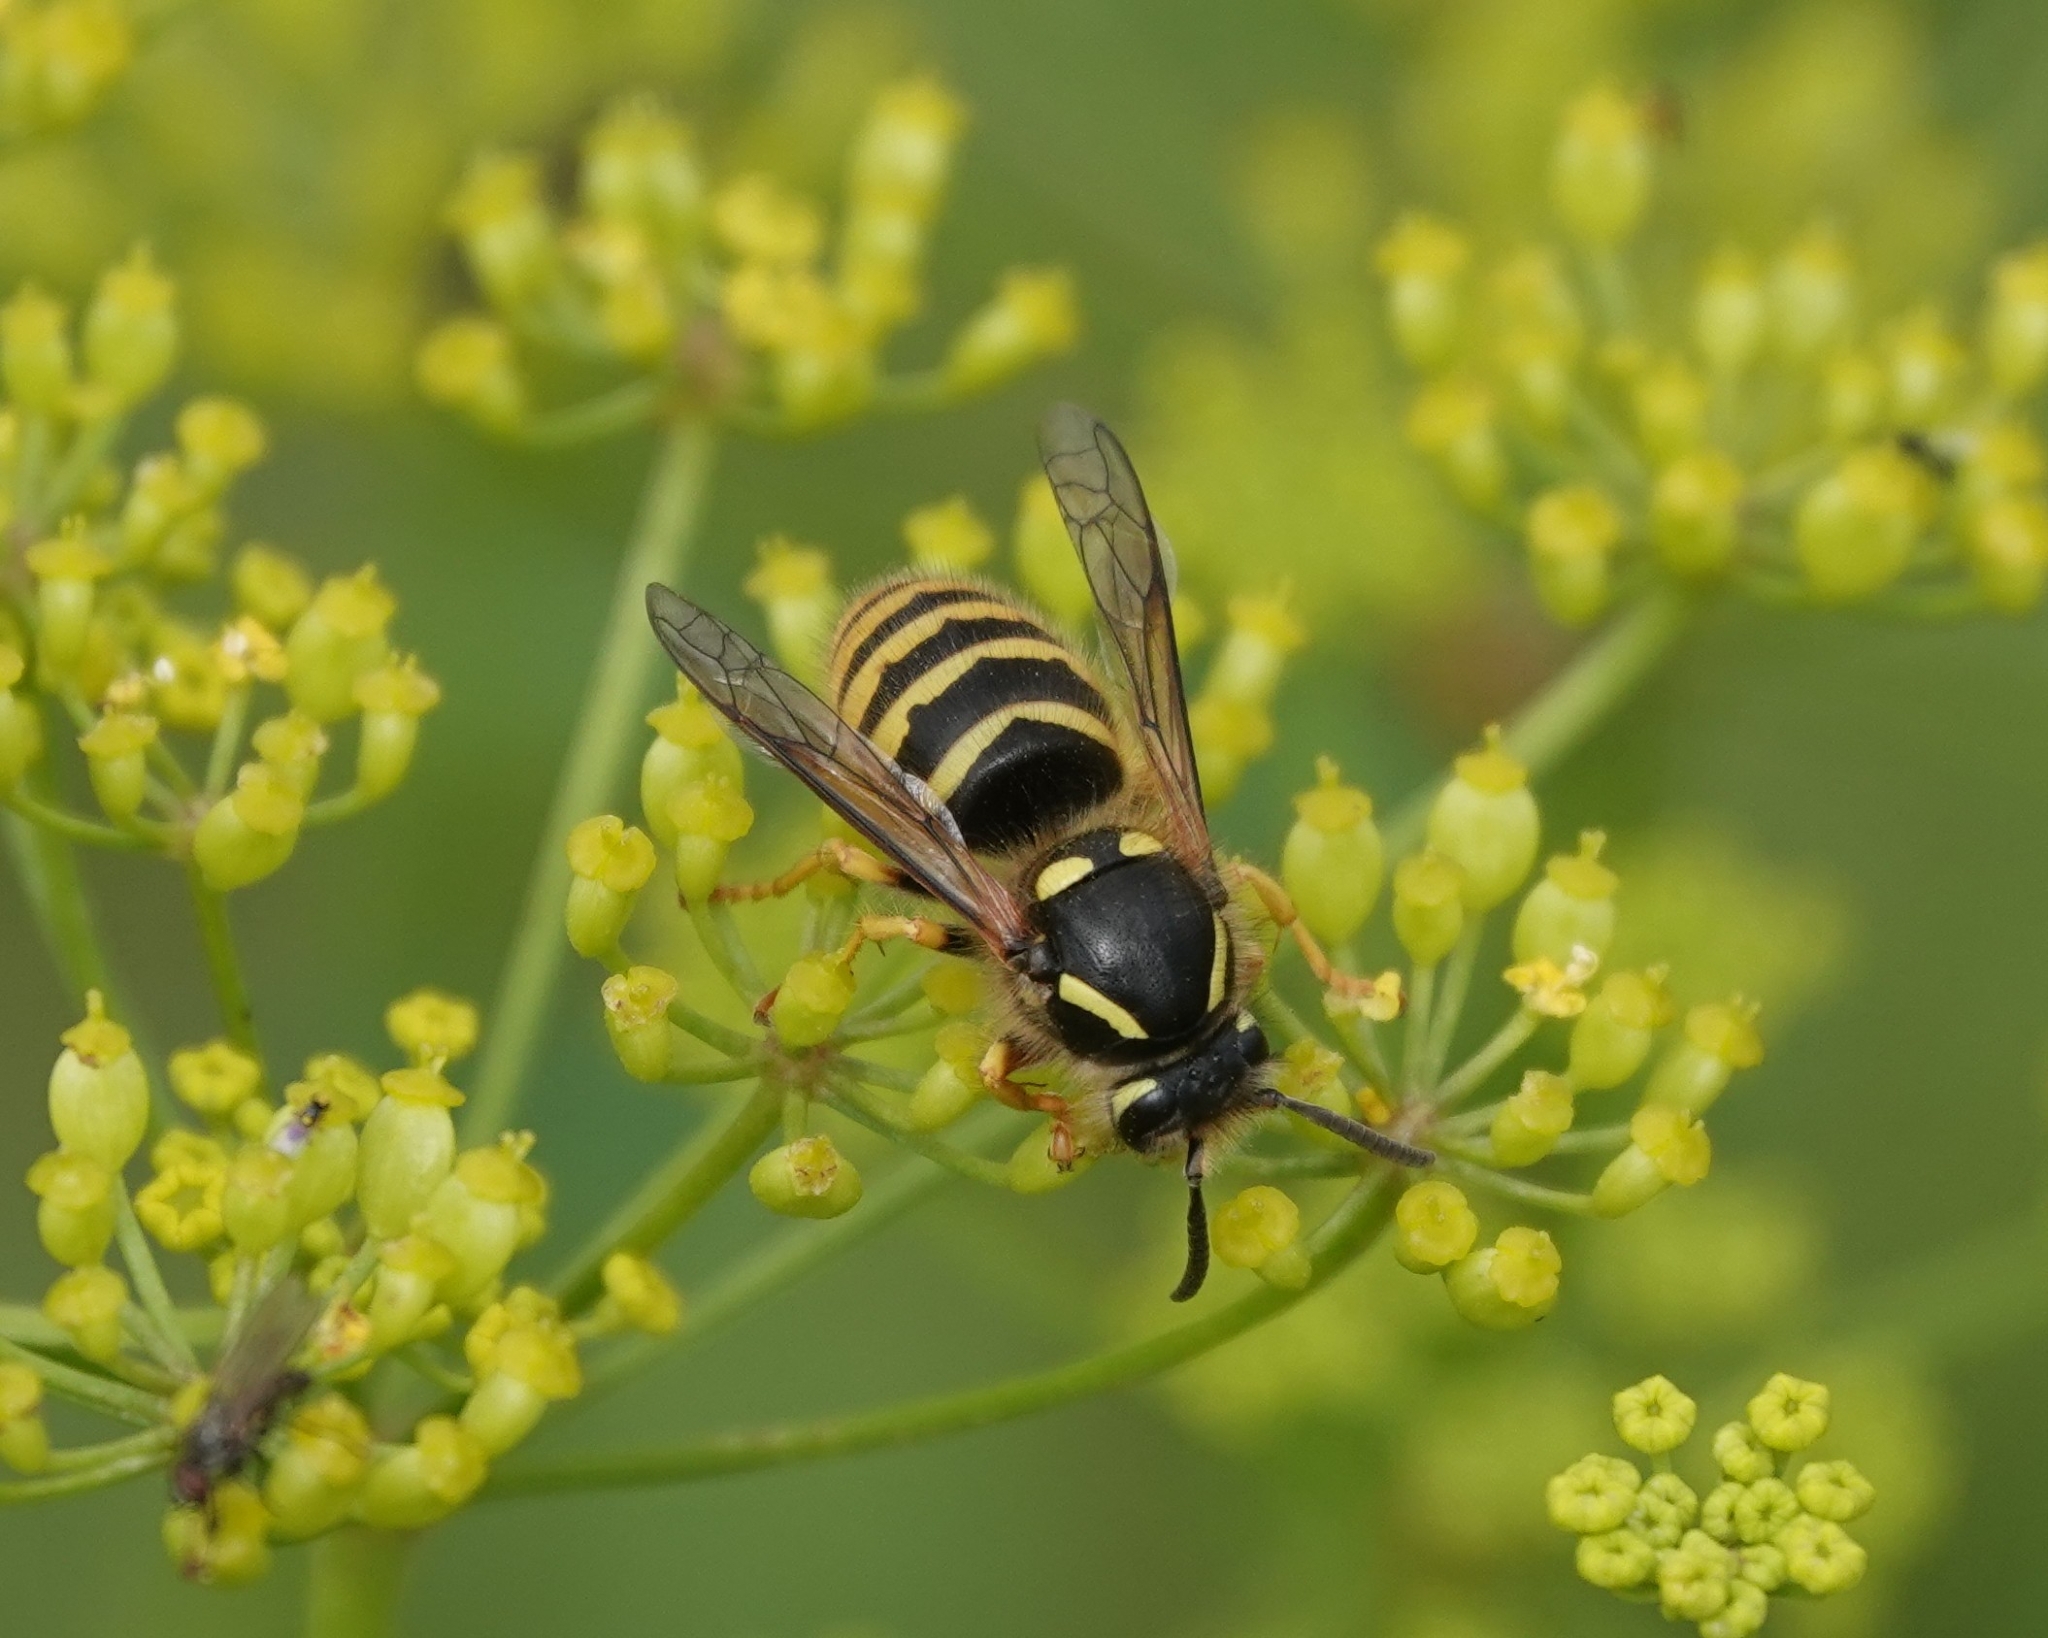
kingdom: Animalia
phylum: Arthropoda
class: Insecta
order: Hymenoptera
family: Vespidae
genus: Dolichovespula
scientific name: Dolichovespula sylvestris
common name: Tree wasp
